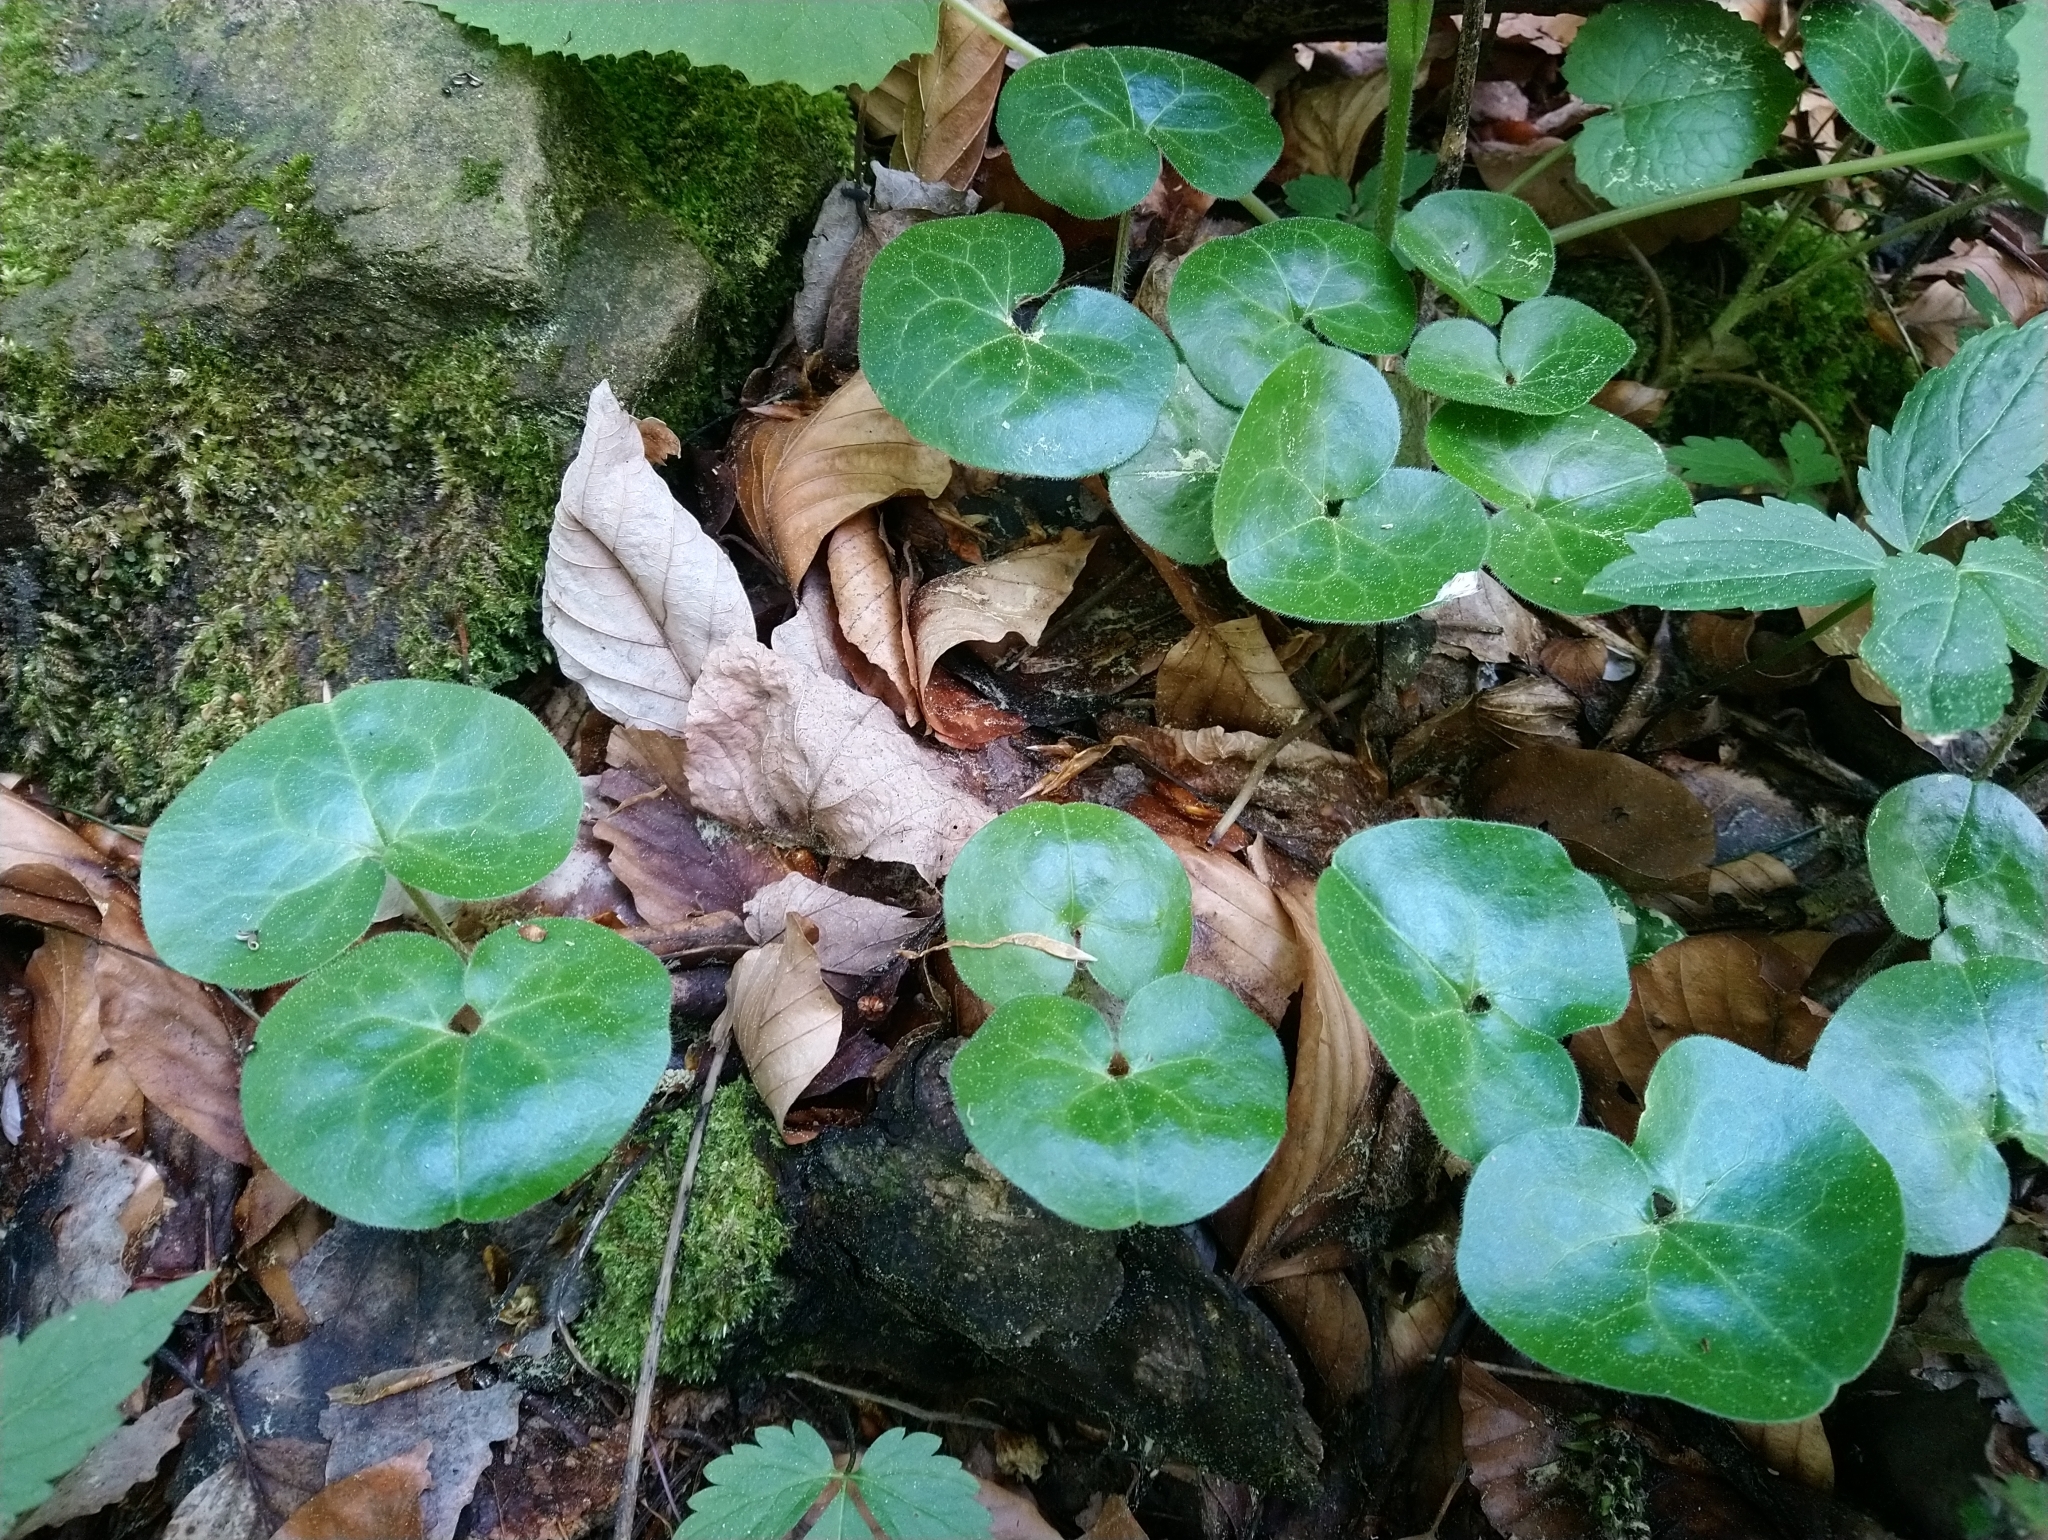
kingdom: Plantae
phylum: Tracheophyta
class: Magnoliopsida
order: Piperales
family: Aristolochiaceae
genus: Asarum
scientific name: Asarum europaeum
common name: Asarabacca
